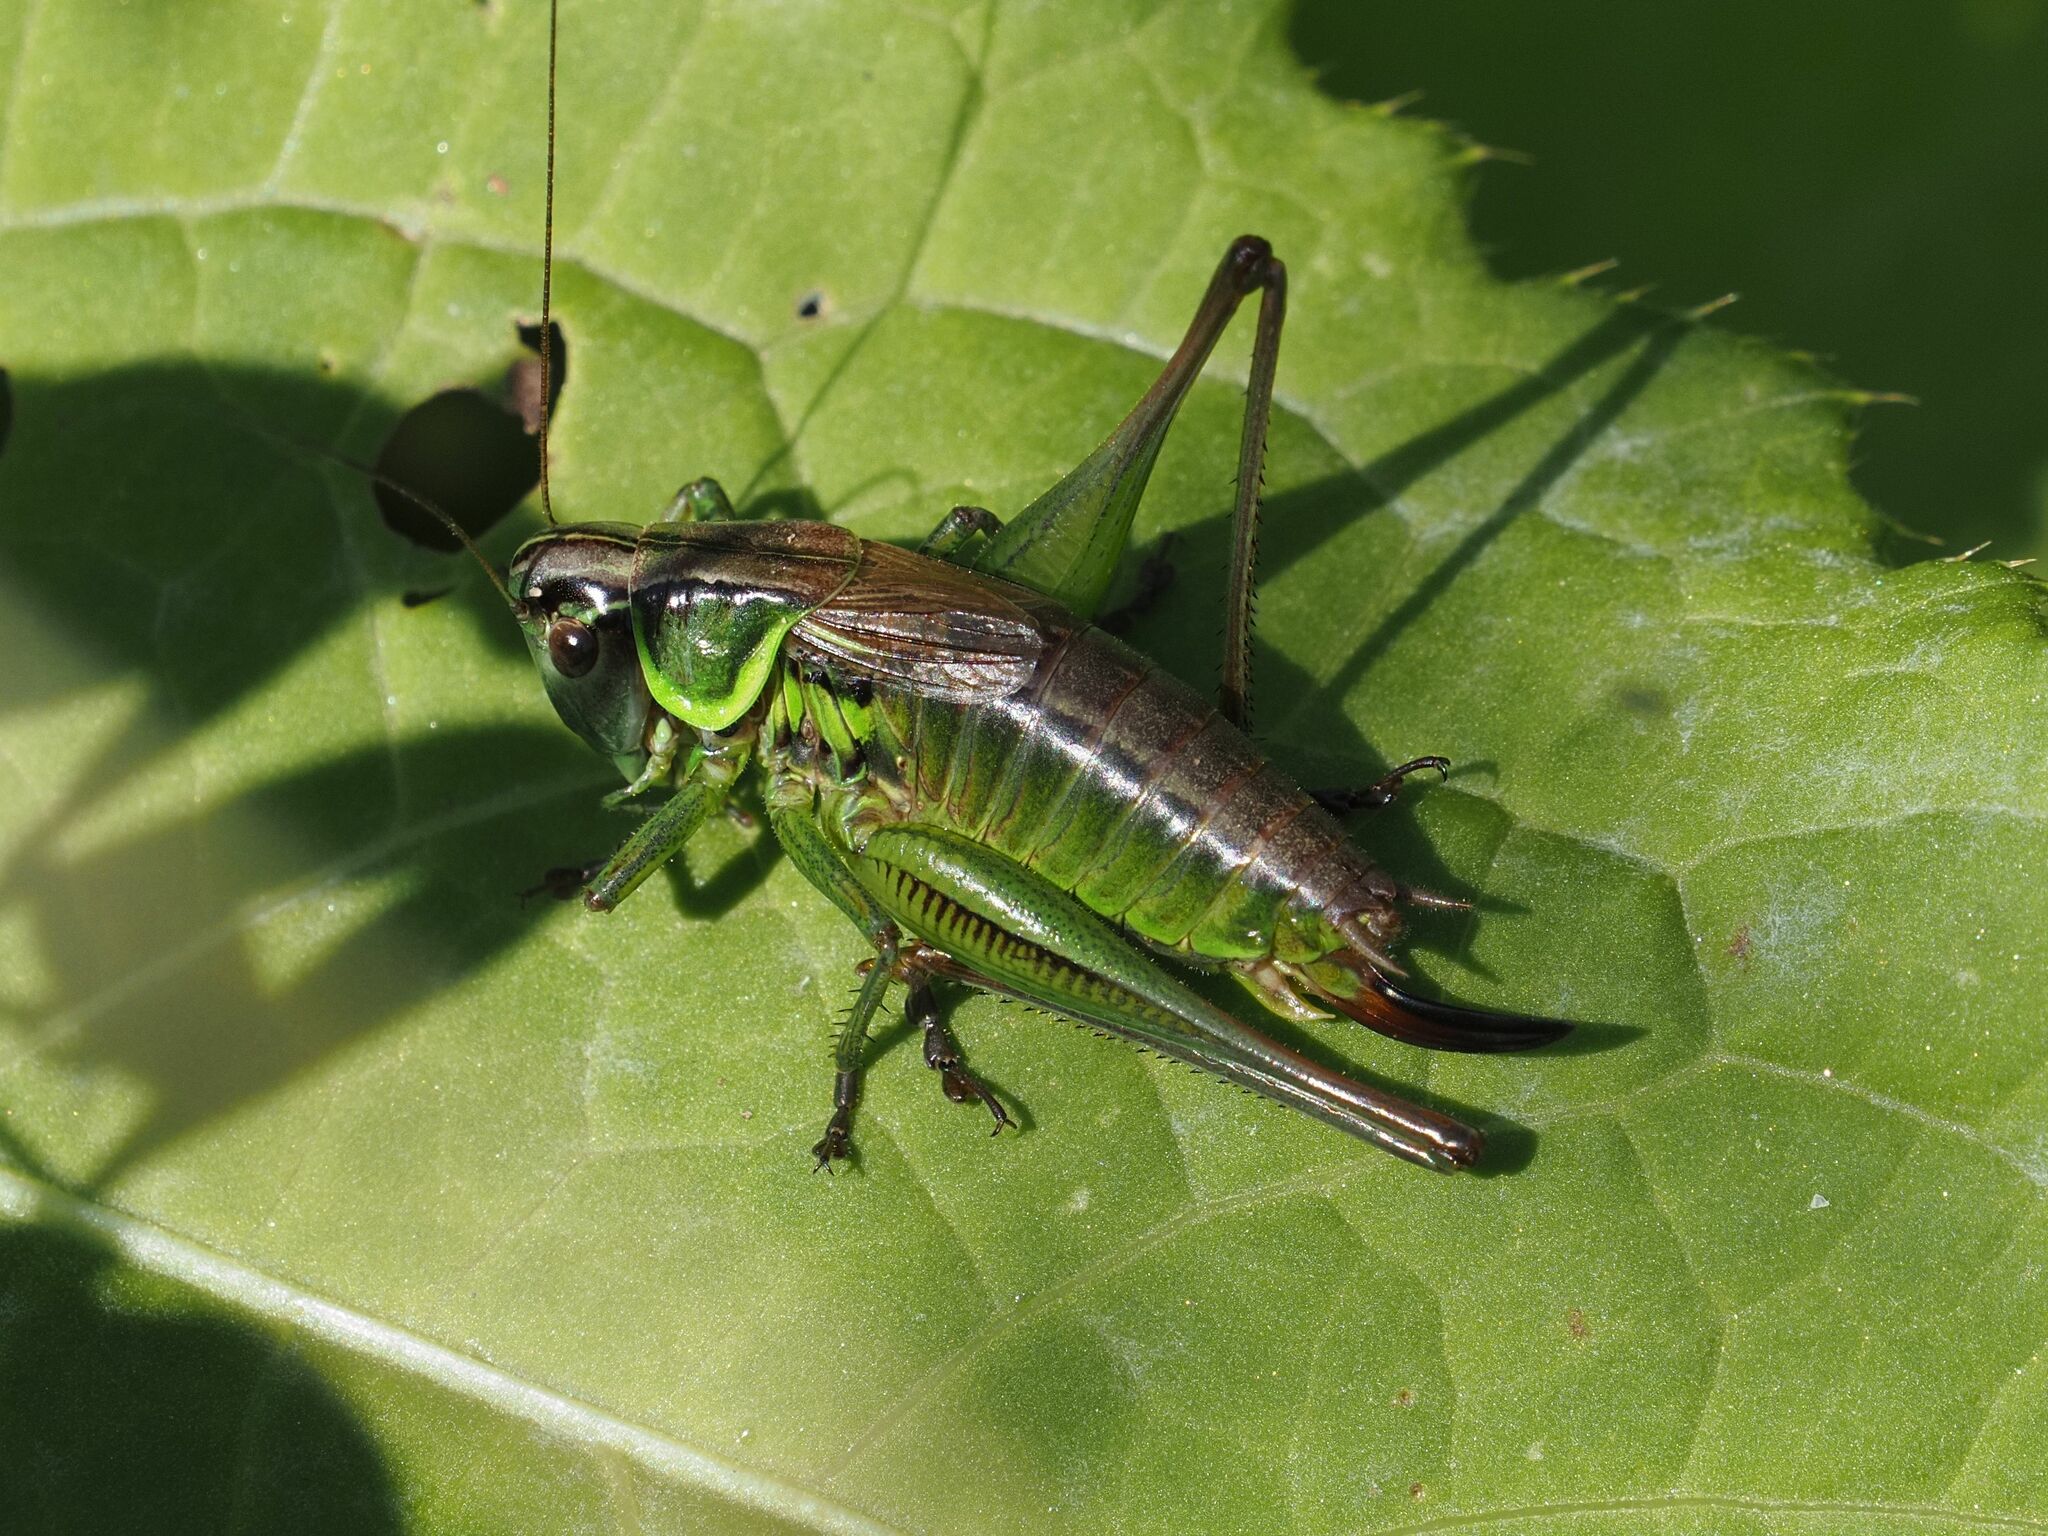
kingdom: Animalia
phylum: Arthropoda
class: Insecta
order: Orthoptera
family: Tettigoniidae
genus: Roeseliana
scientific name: Roeseliana roeselii
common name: Roesel's bush cricket
